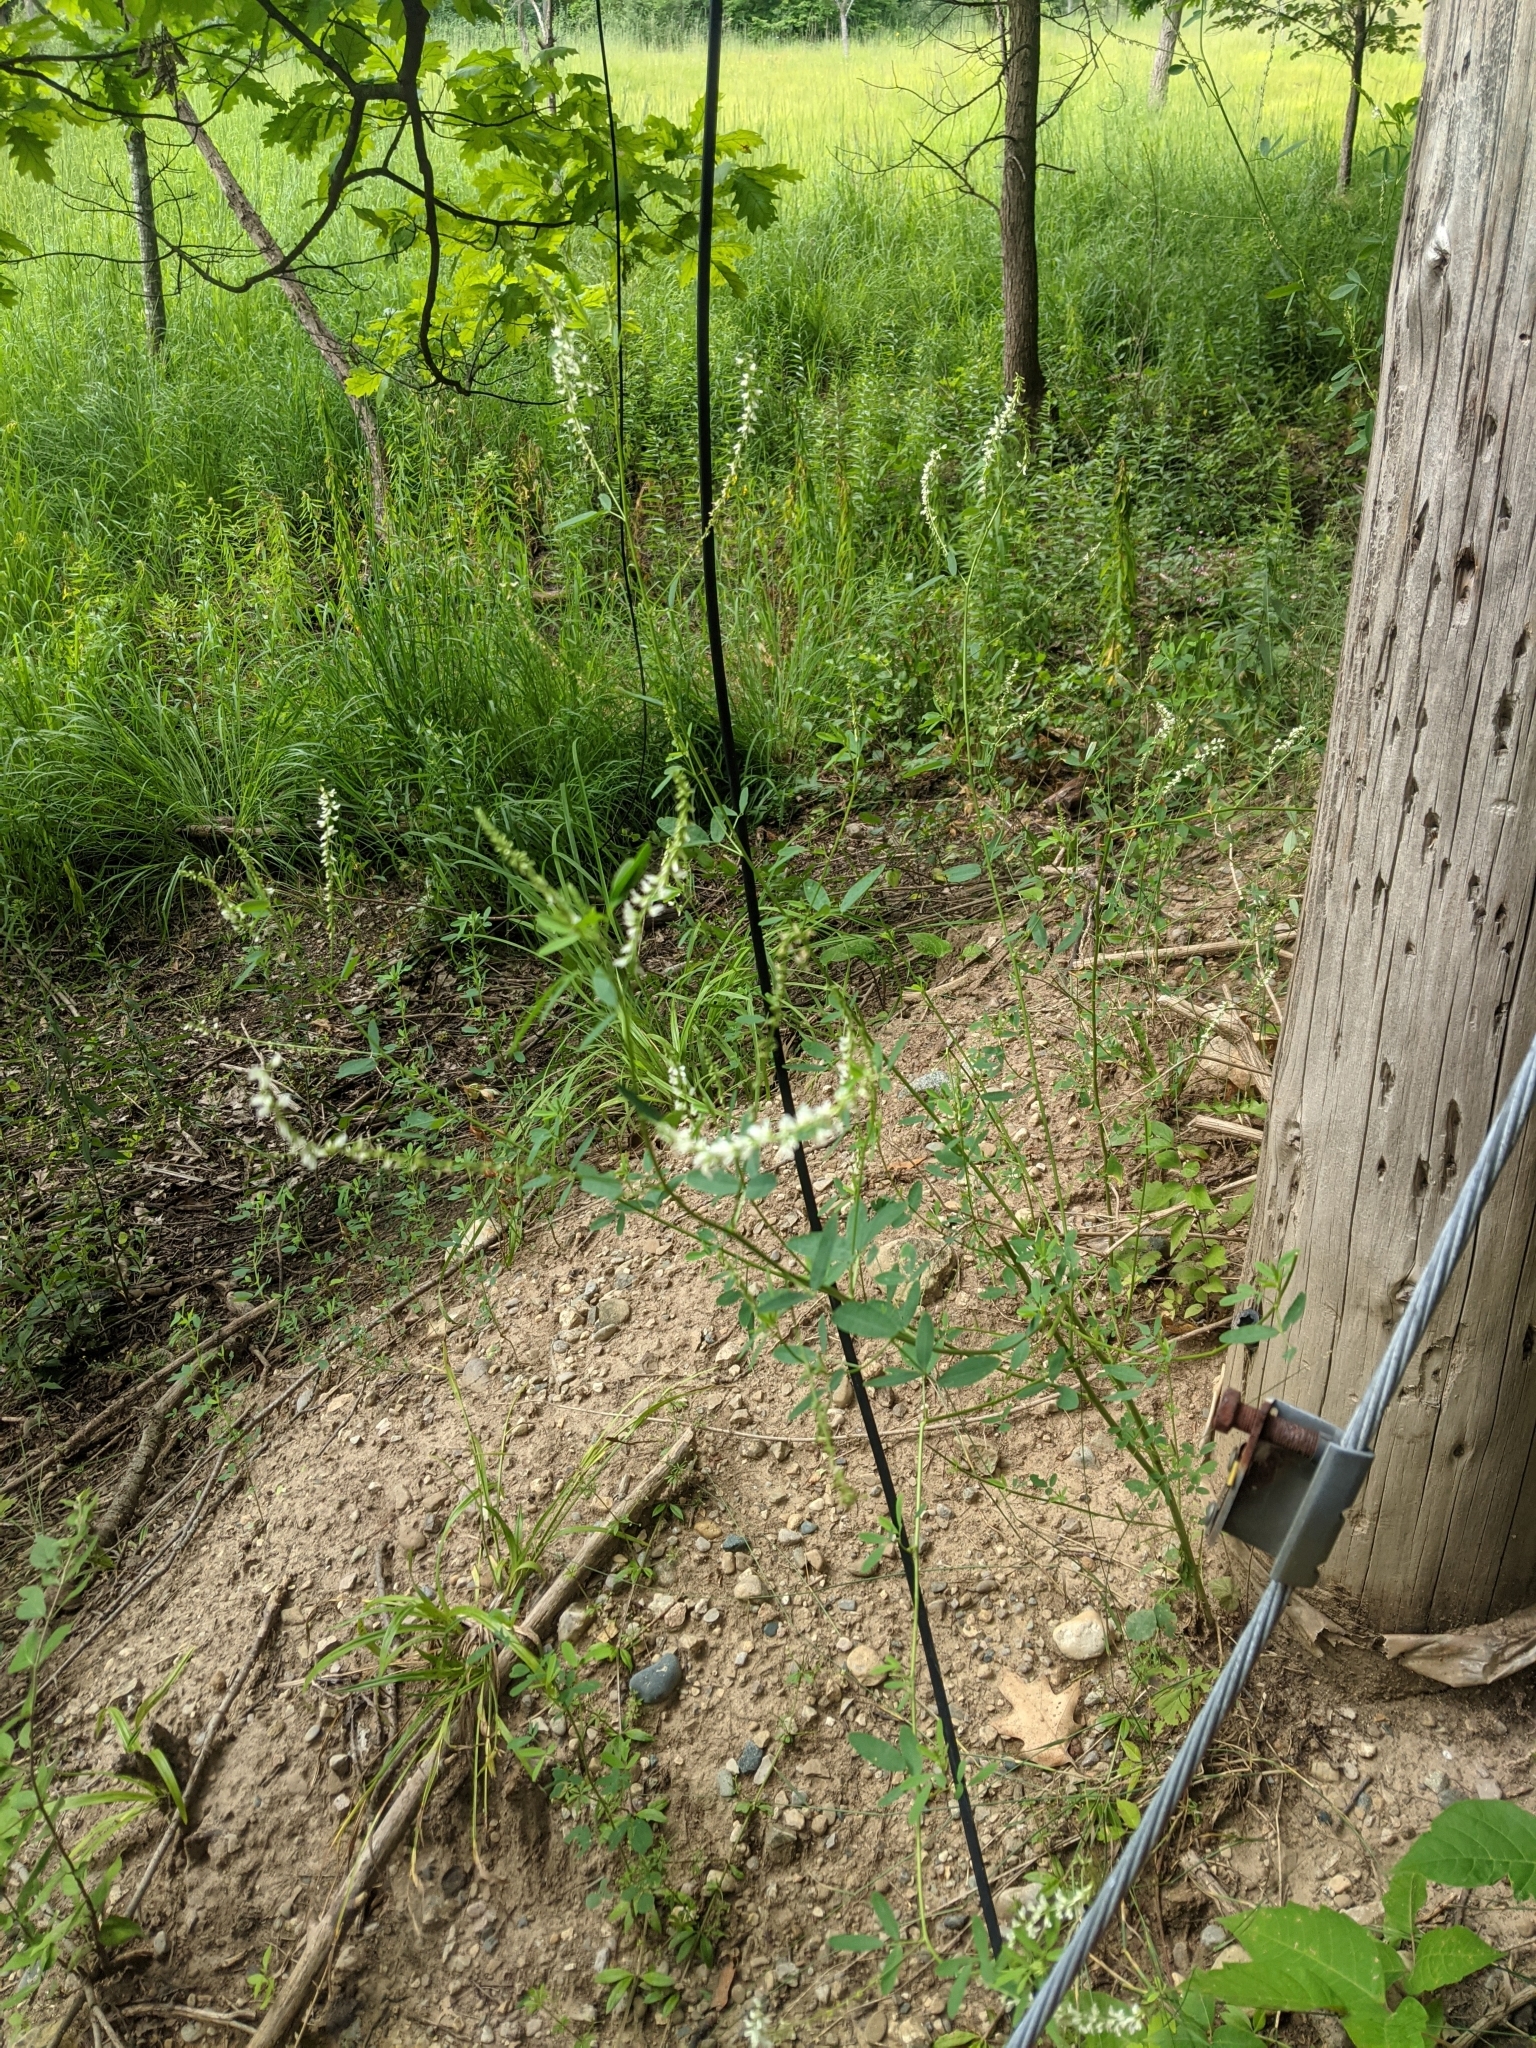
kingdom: Plantae
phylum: Tracheophyta
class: Magnoliopsida
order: Fabales
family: Fabaceae
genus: Melilotus
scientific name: Melilotus albus
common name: White melilot
